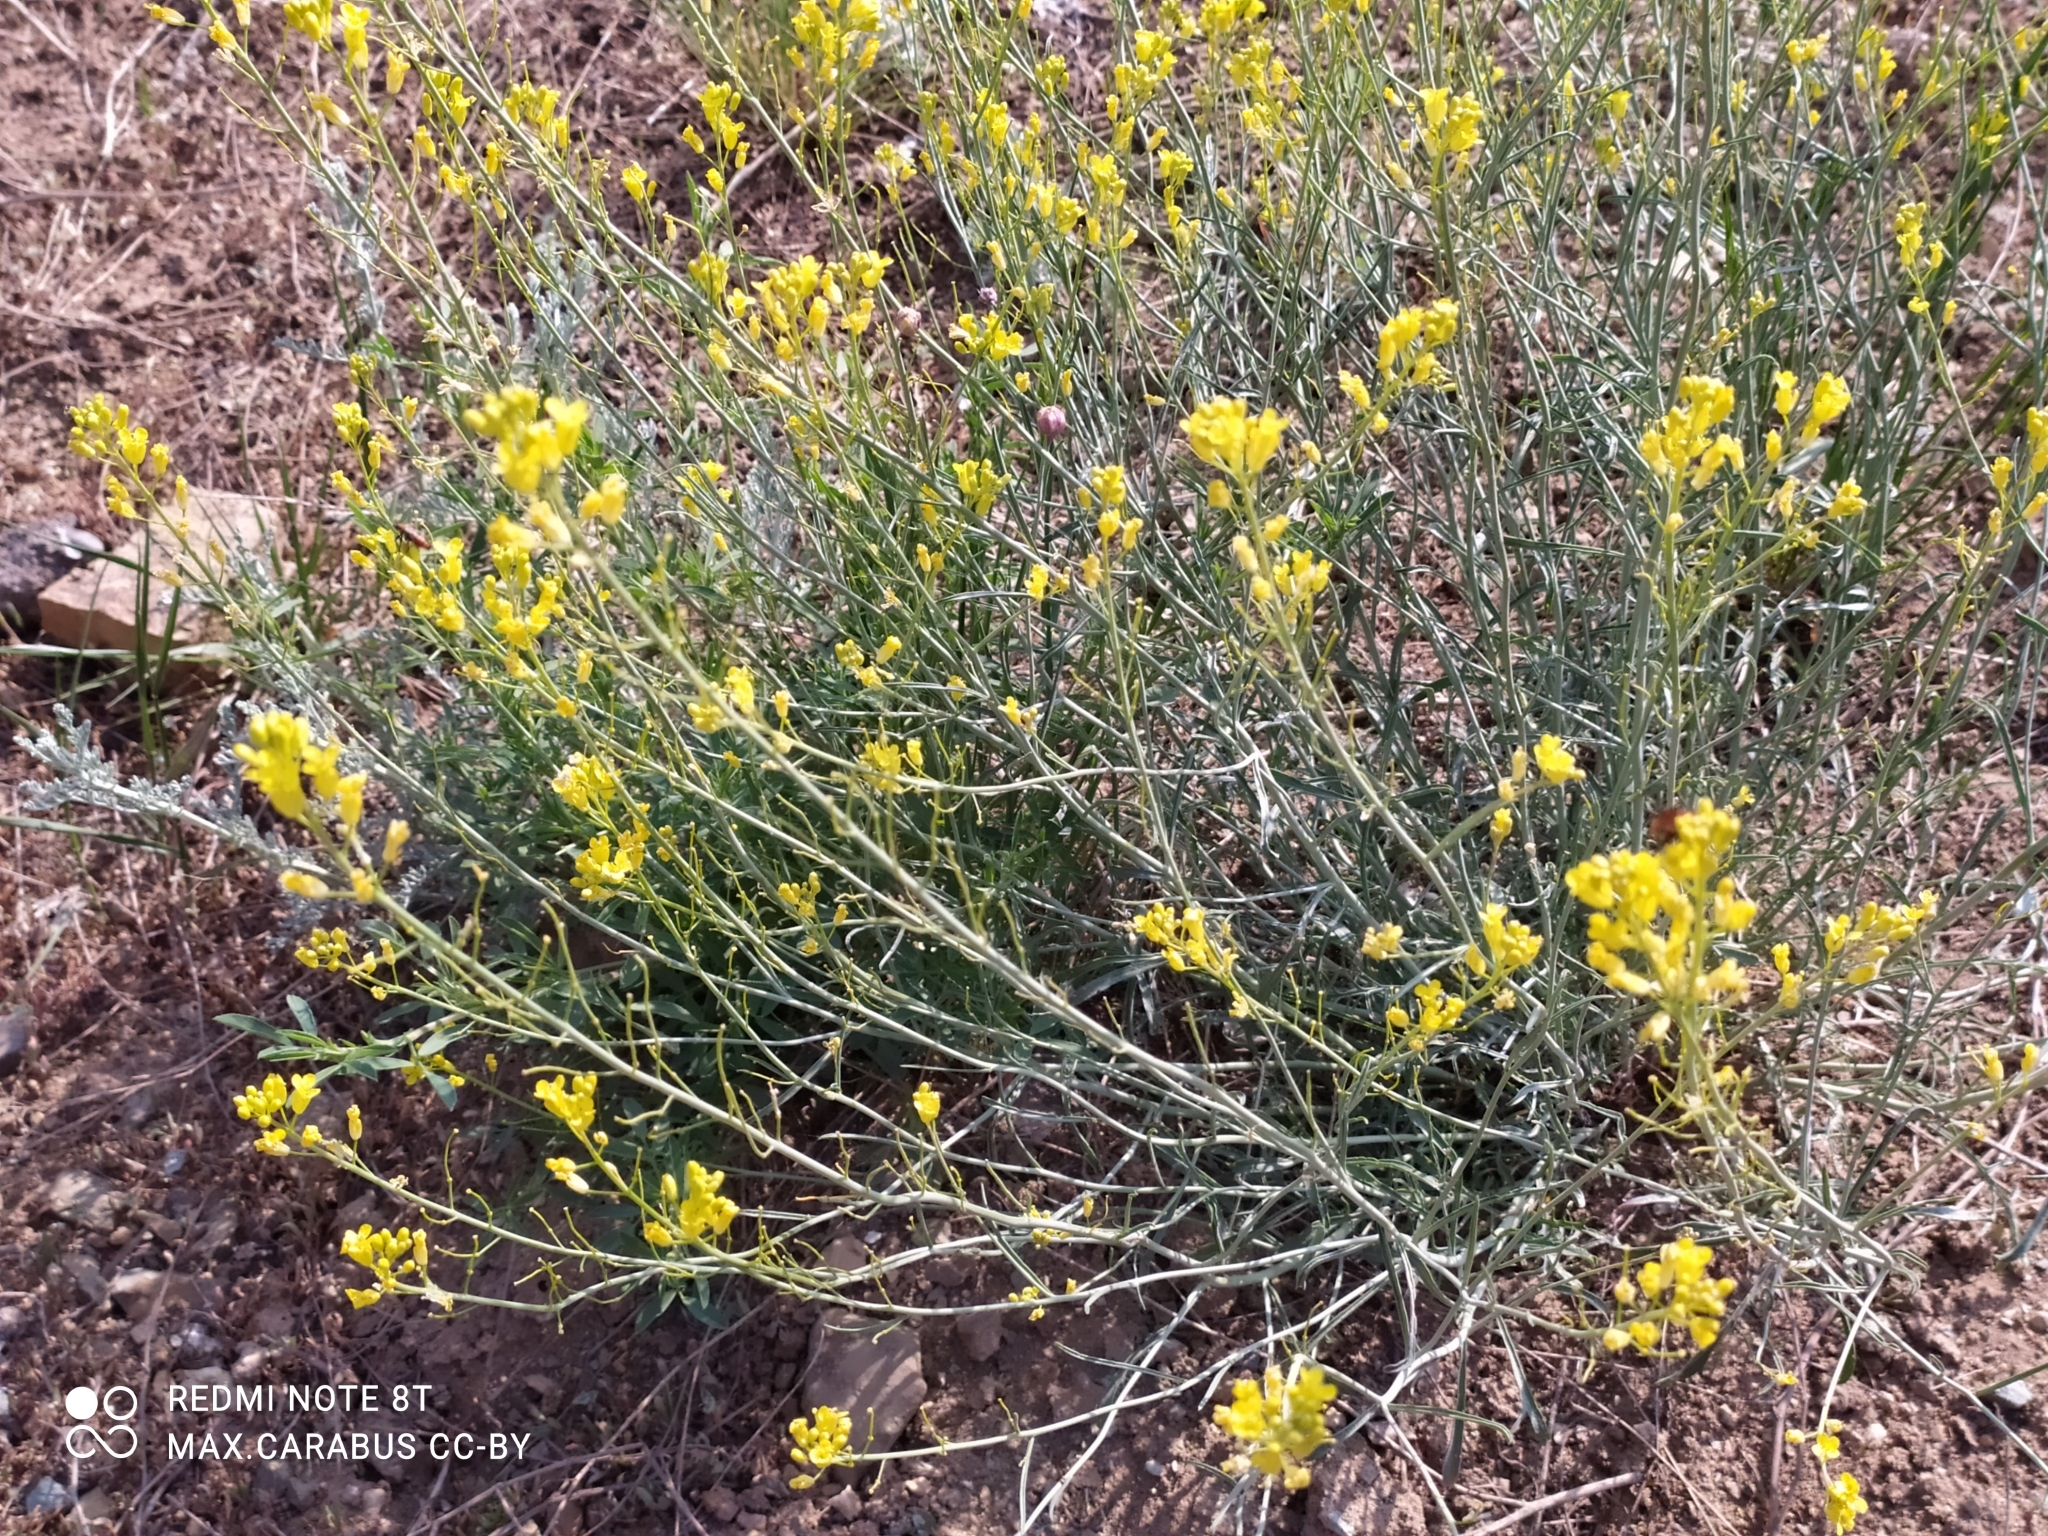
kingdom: Plantae
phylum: Tracheophyta
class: Magnoliopsida
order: Brassicales
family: Brassicaceae
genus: Sisymbrium
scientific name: Sisymbrium polymorphum
